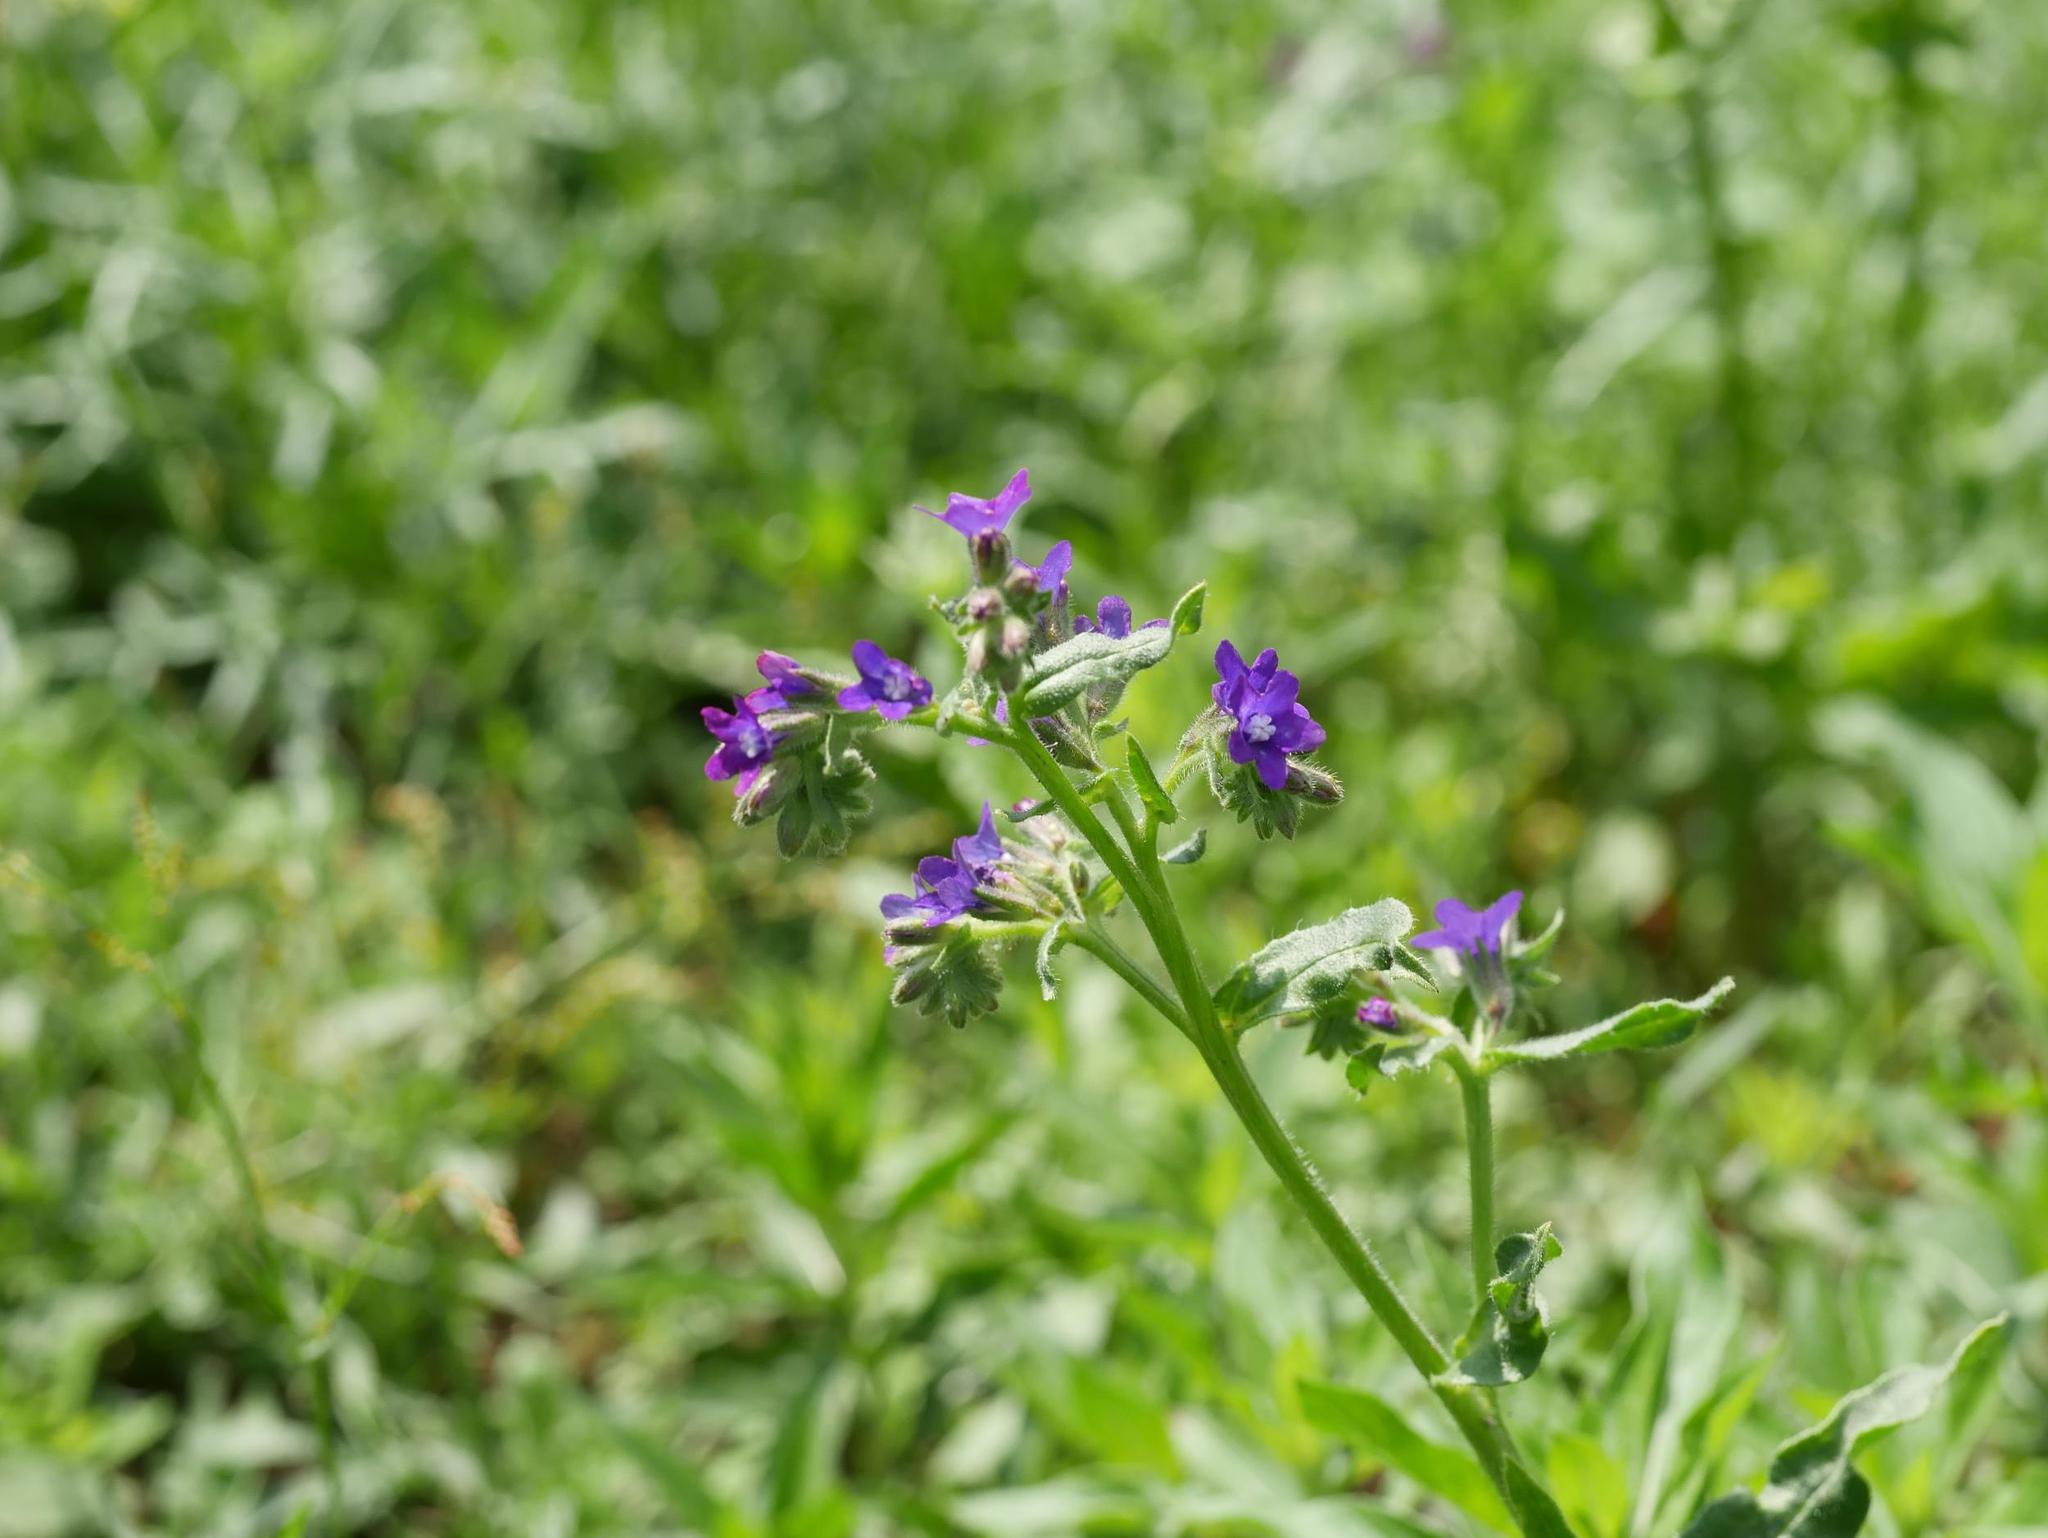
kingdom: Plantae
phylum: Tracheophyta
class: Magnoliopsida
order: Boraginales
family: Boraginaceae
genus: Anchusa
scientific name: Anchusa officinalis
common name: Alkanet
